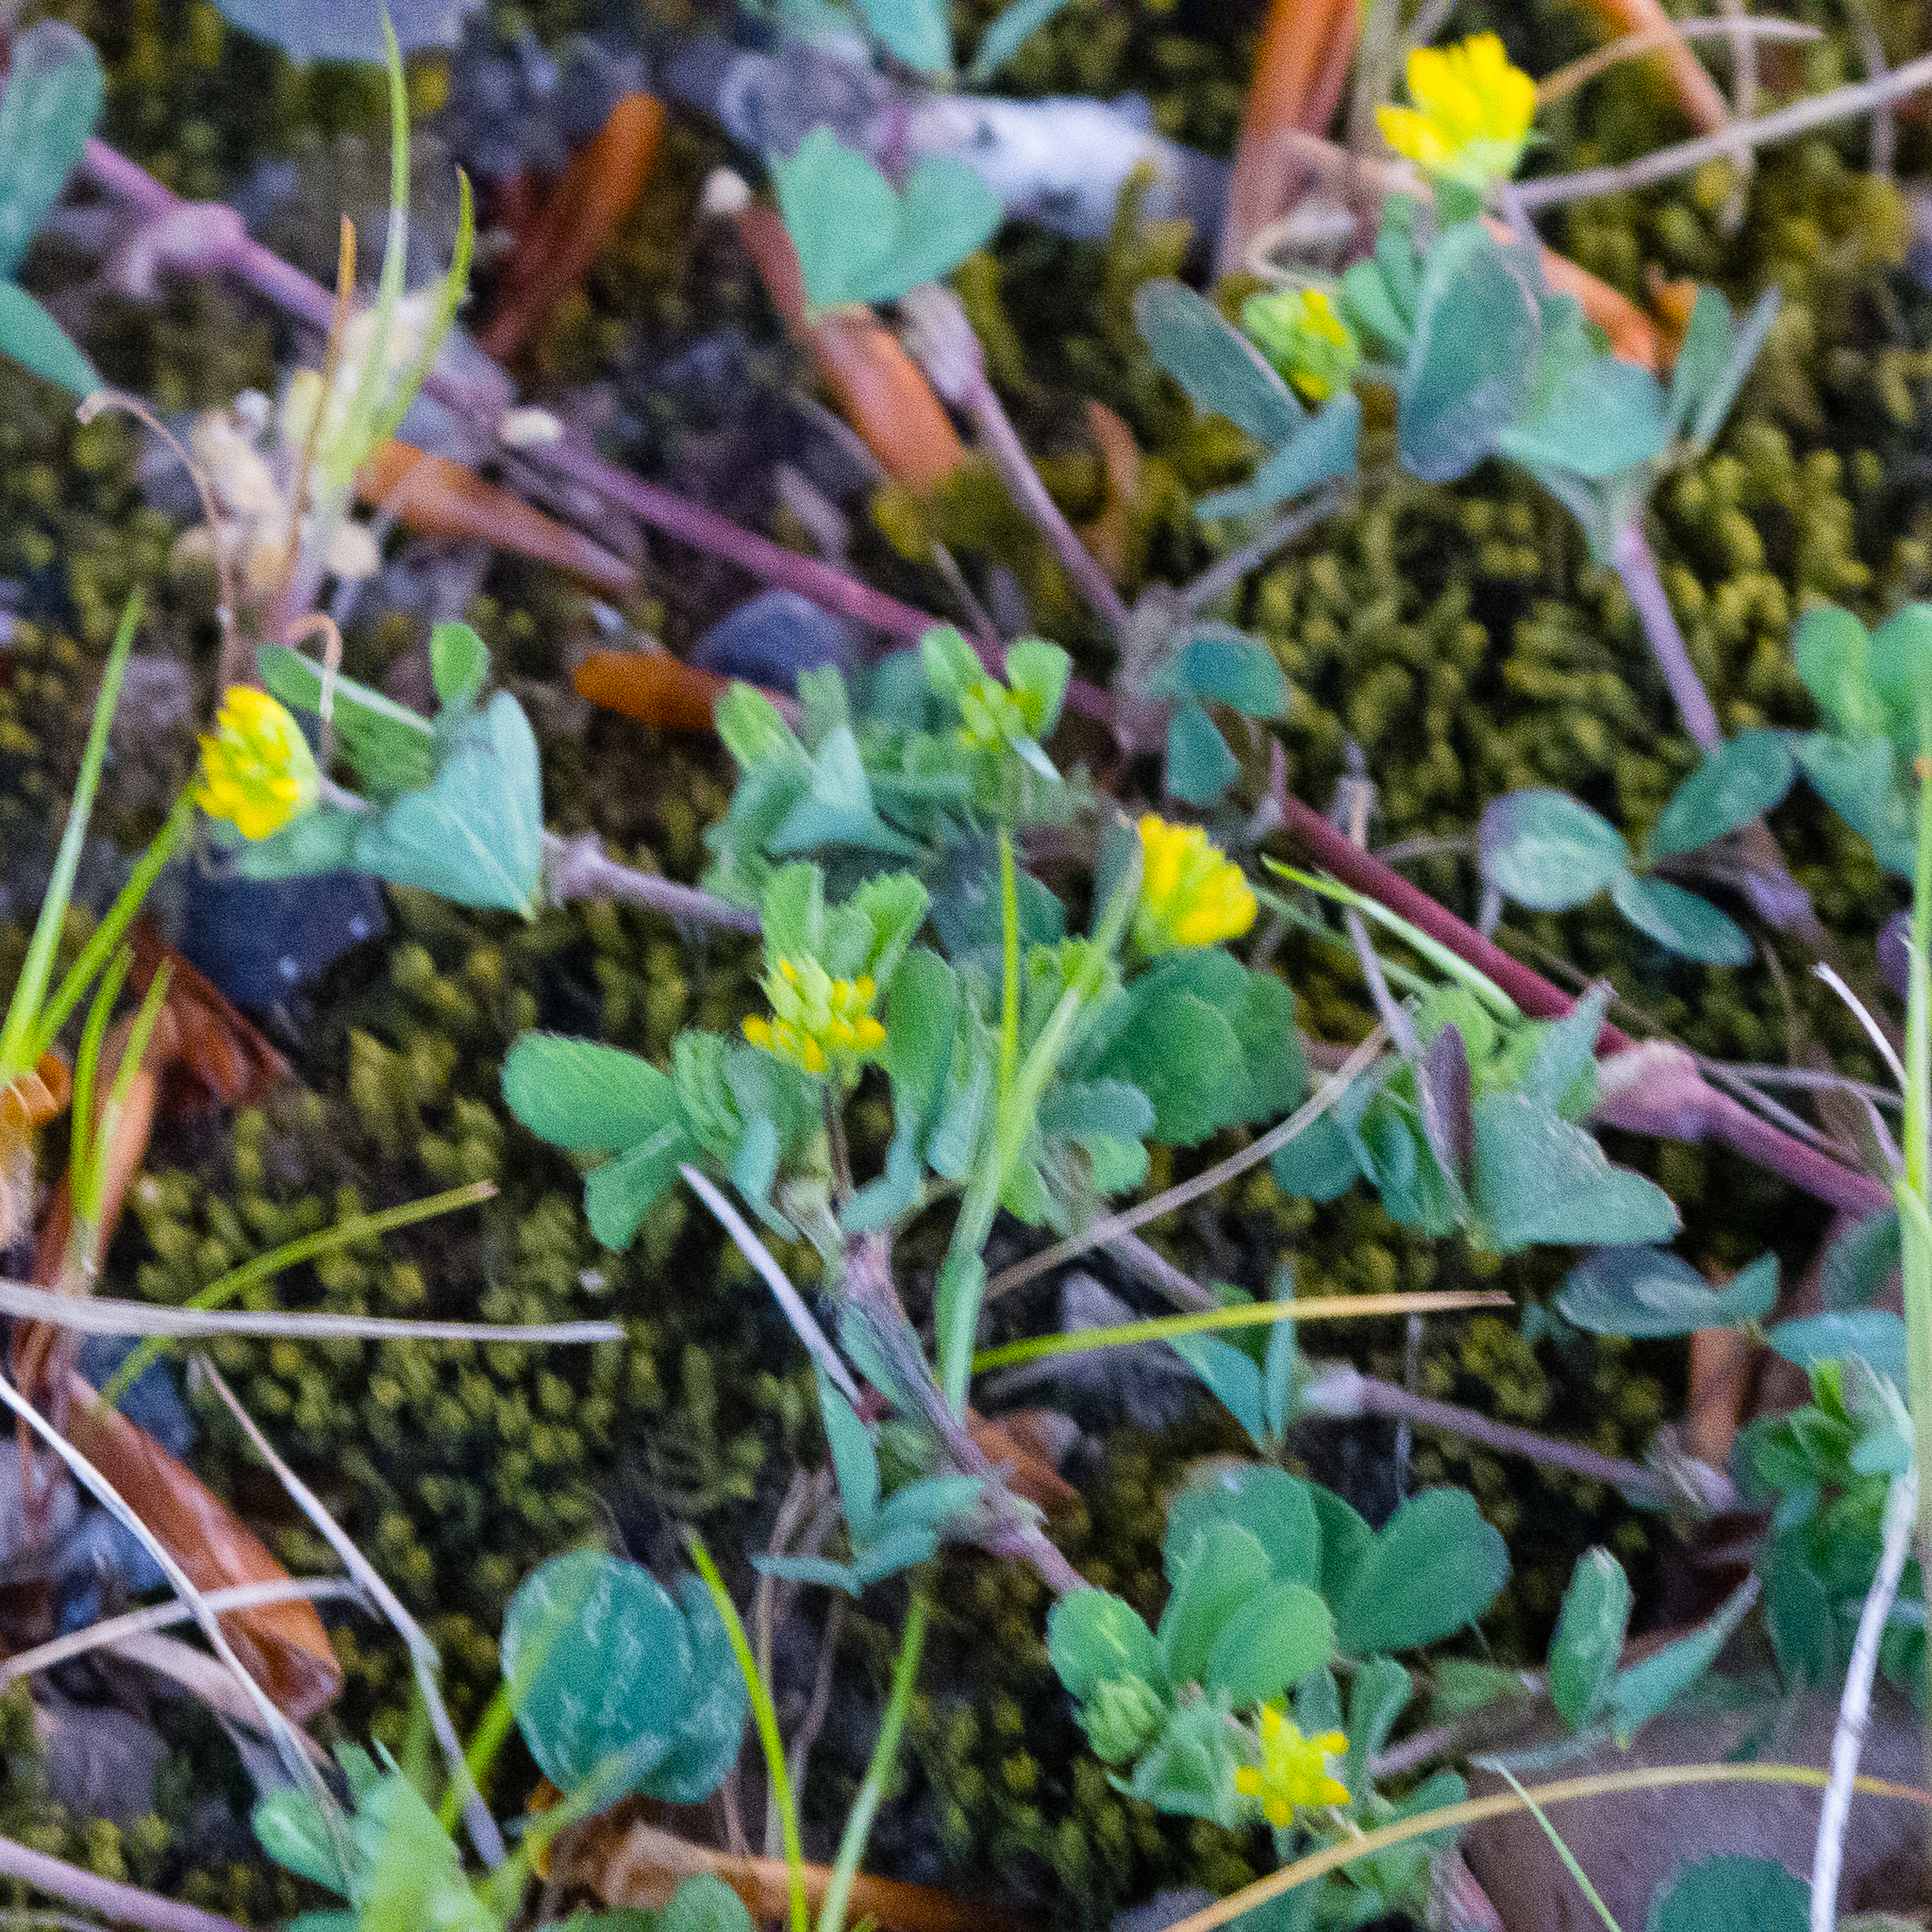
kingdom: Plantae
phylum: Tracheophyta
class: Magnoliopsida
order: Fabales
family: Fabaceae
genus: Trifolium
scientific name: Trifolium dubium
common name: Suckling clover
